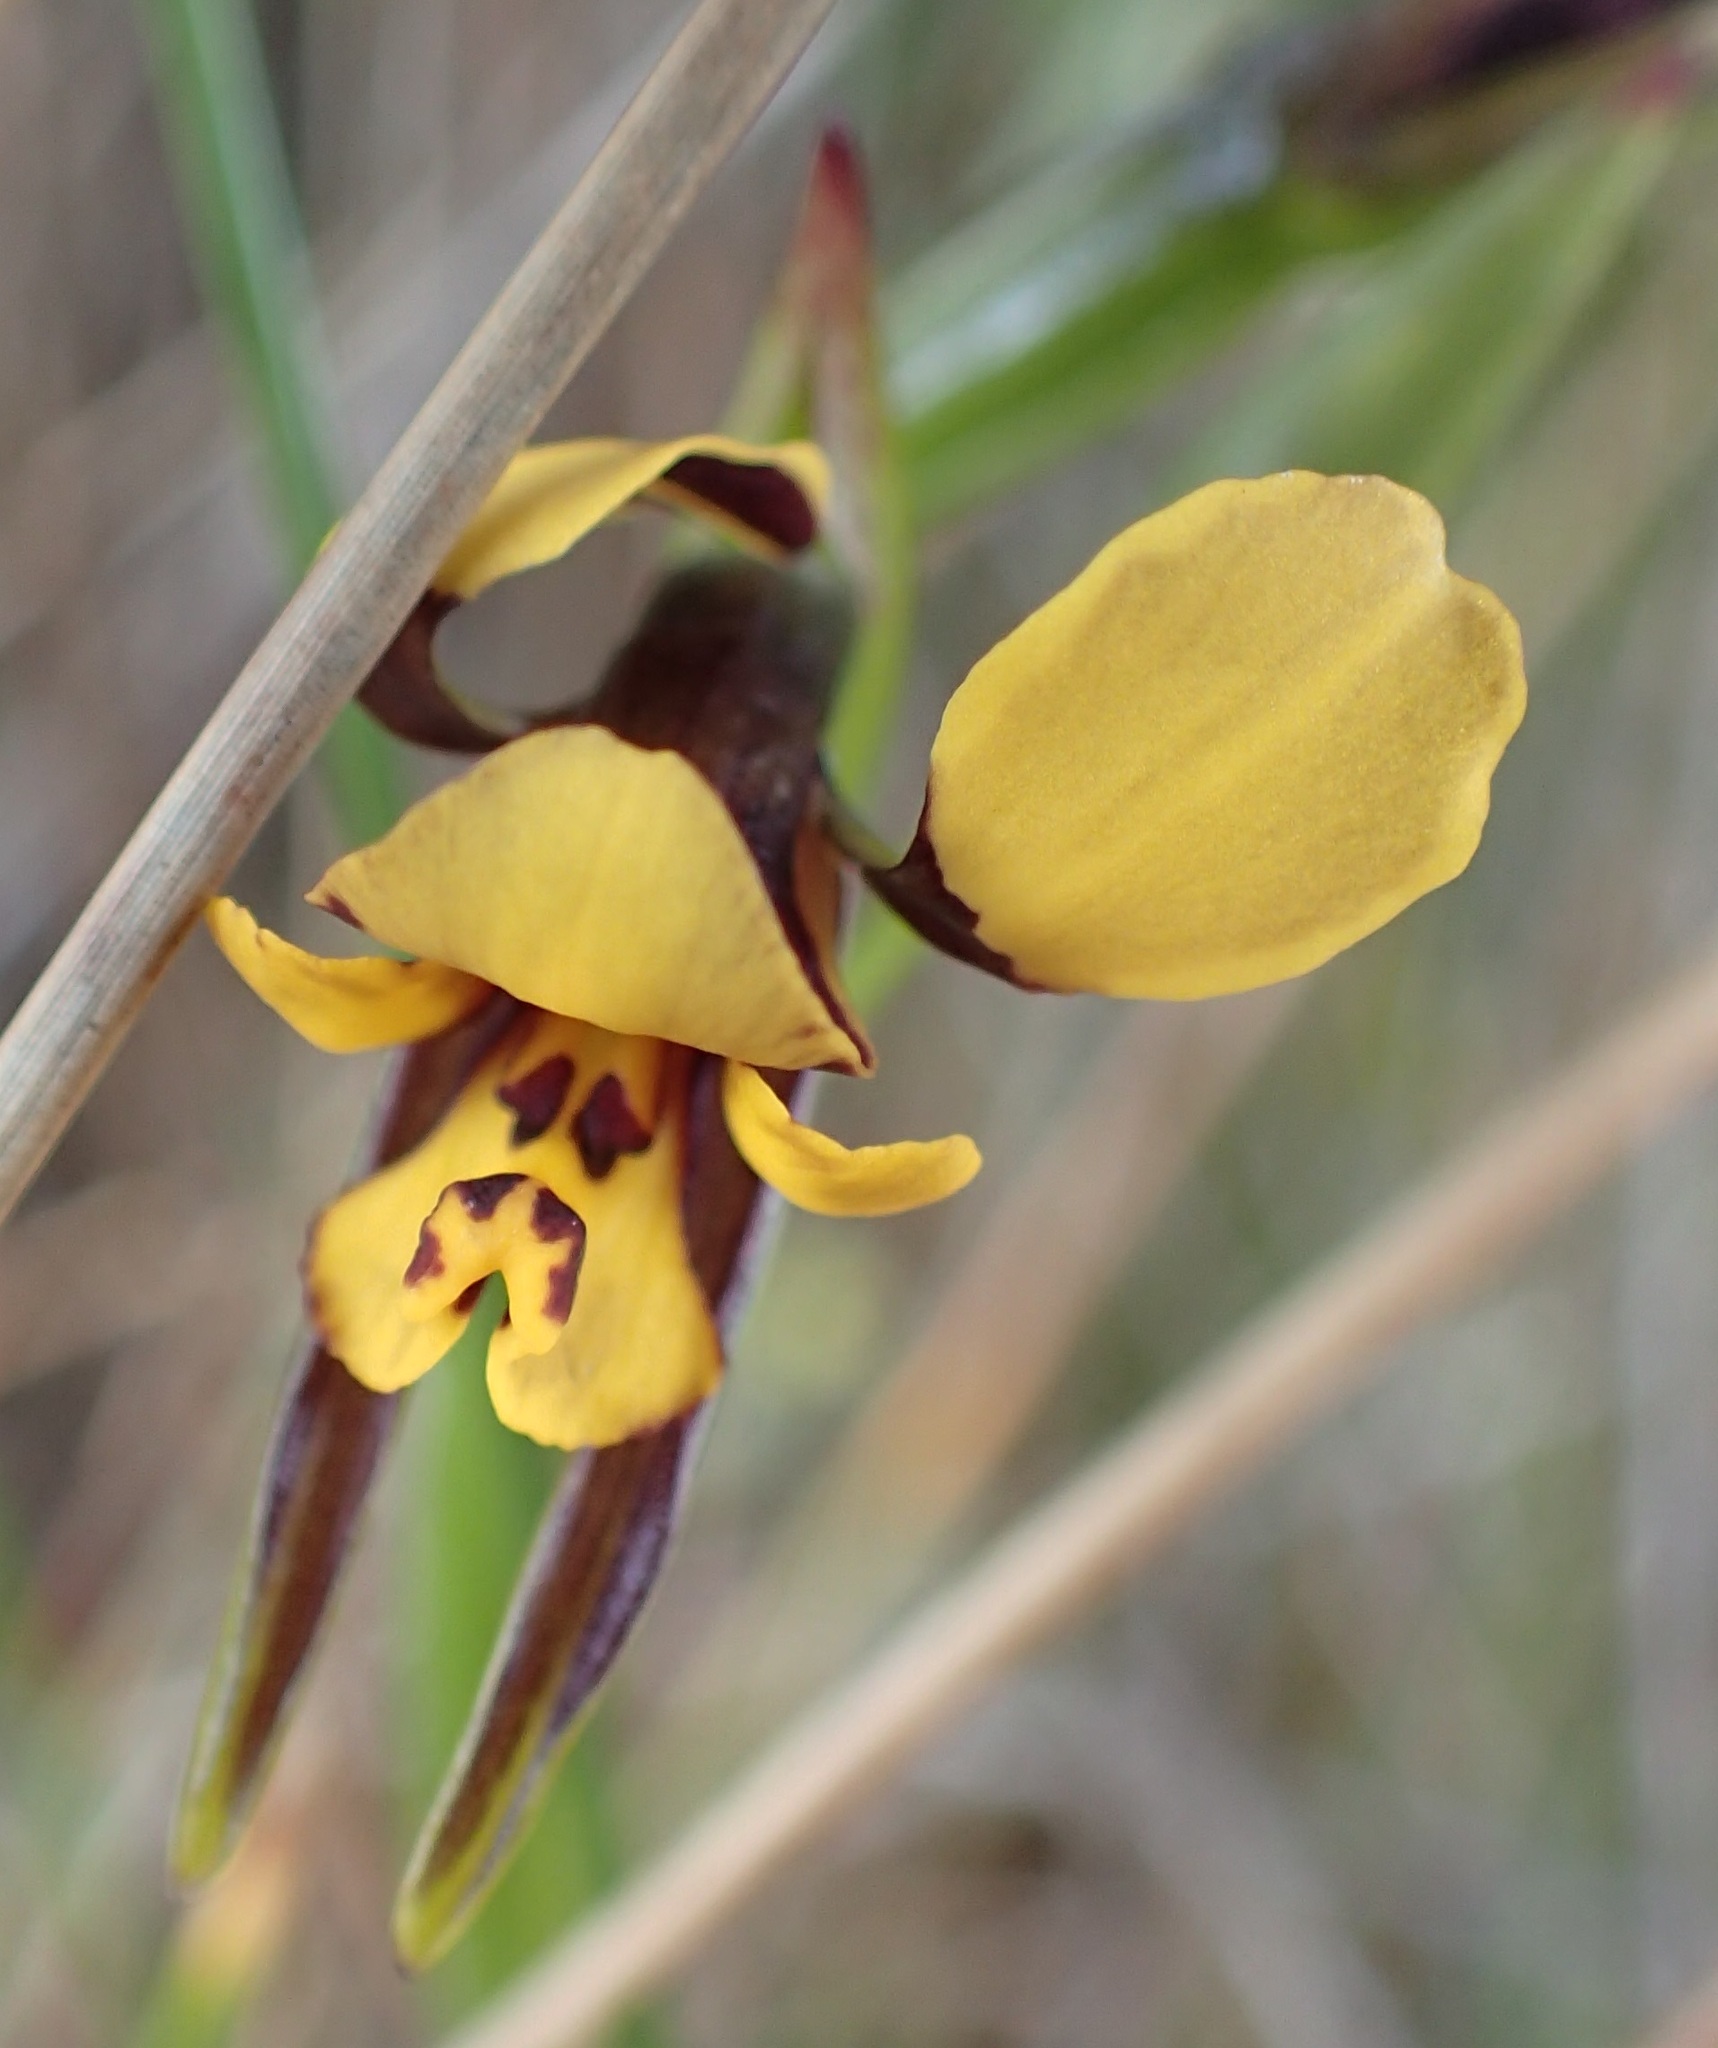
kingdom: Plantae
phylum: Tracheophyta
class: Liliopsida
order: Asparagales
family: Orchidaceae
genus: Diuris
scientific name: Diuris palustris
